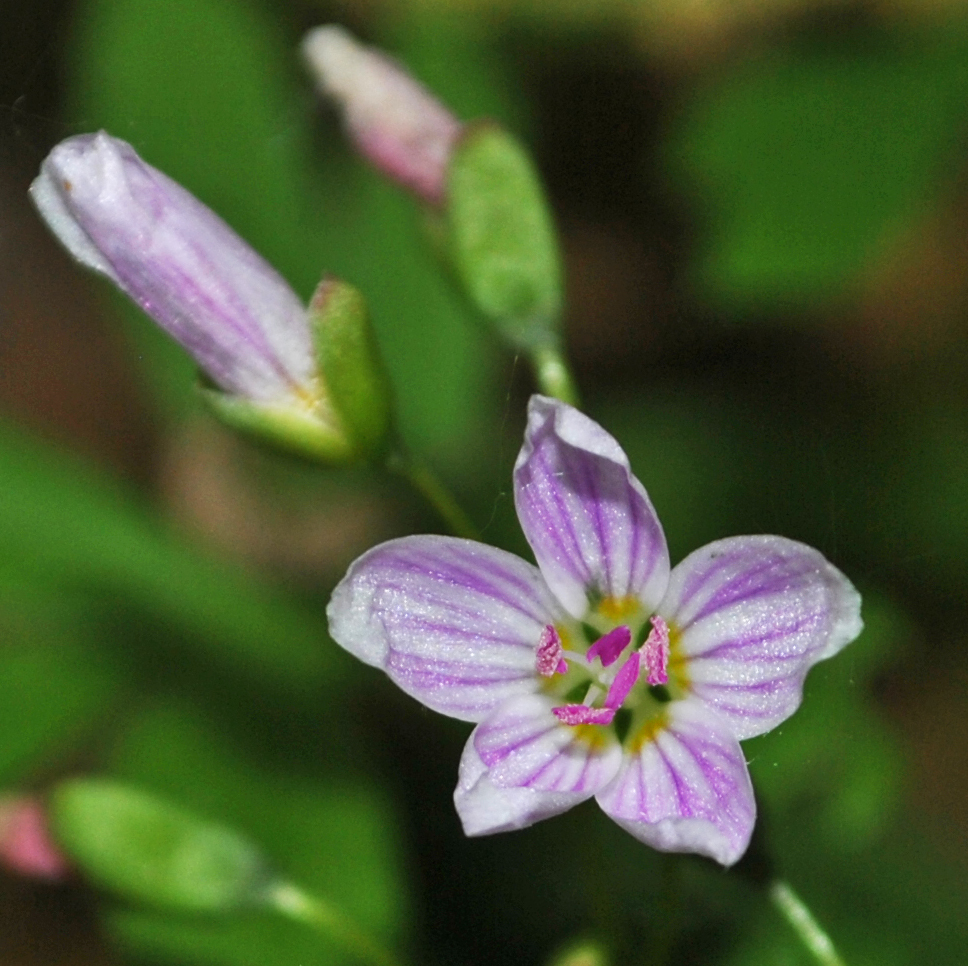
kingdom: Plantae
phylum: Tracheophyta
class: Magnoliopsida
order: Caryophyllales
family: Montiaceae
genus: Claytonia
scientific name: Claytonia virginica
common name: Virginia springbeauty
